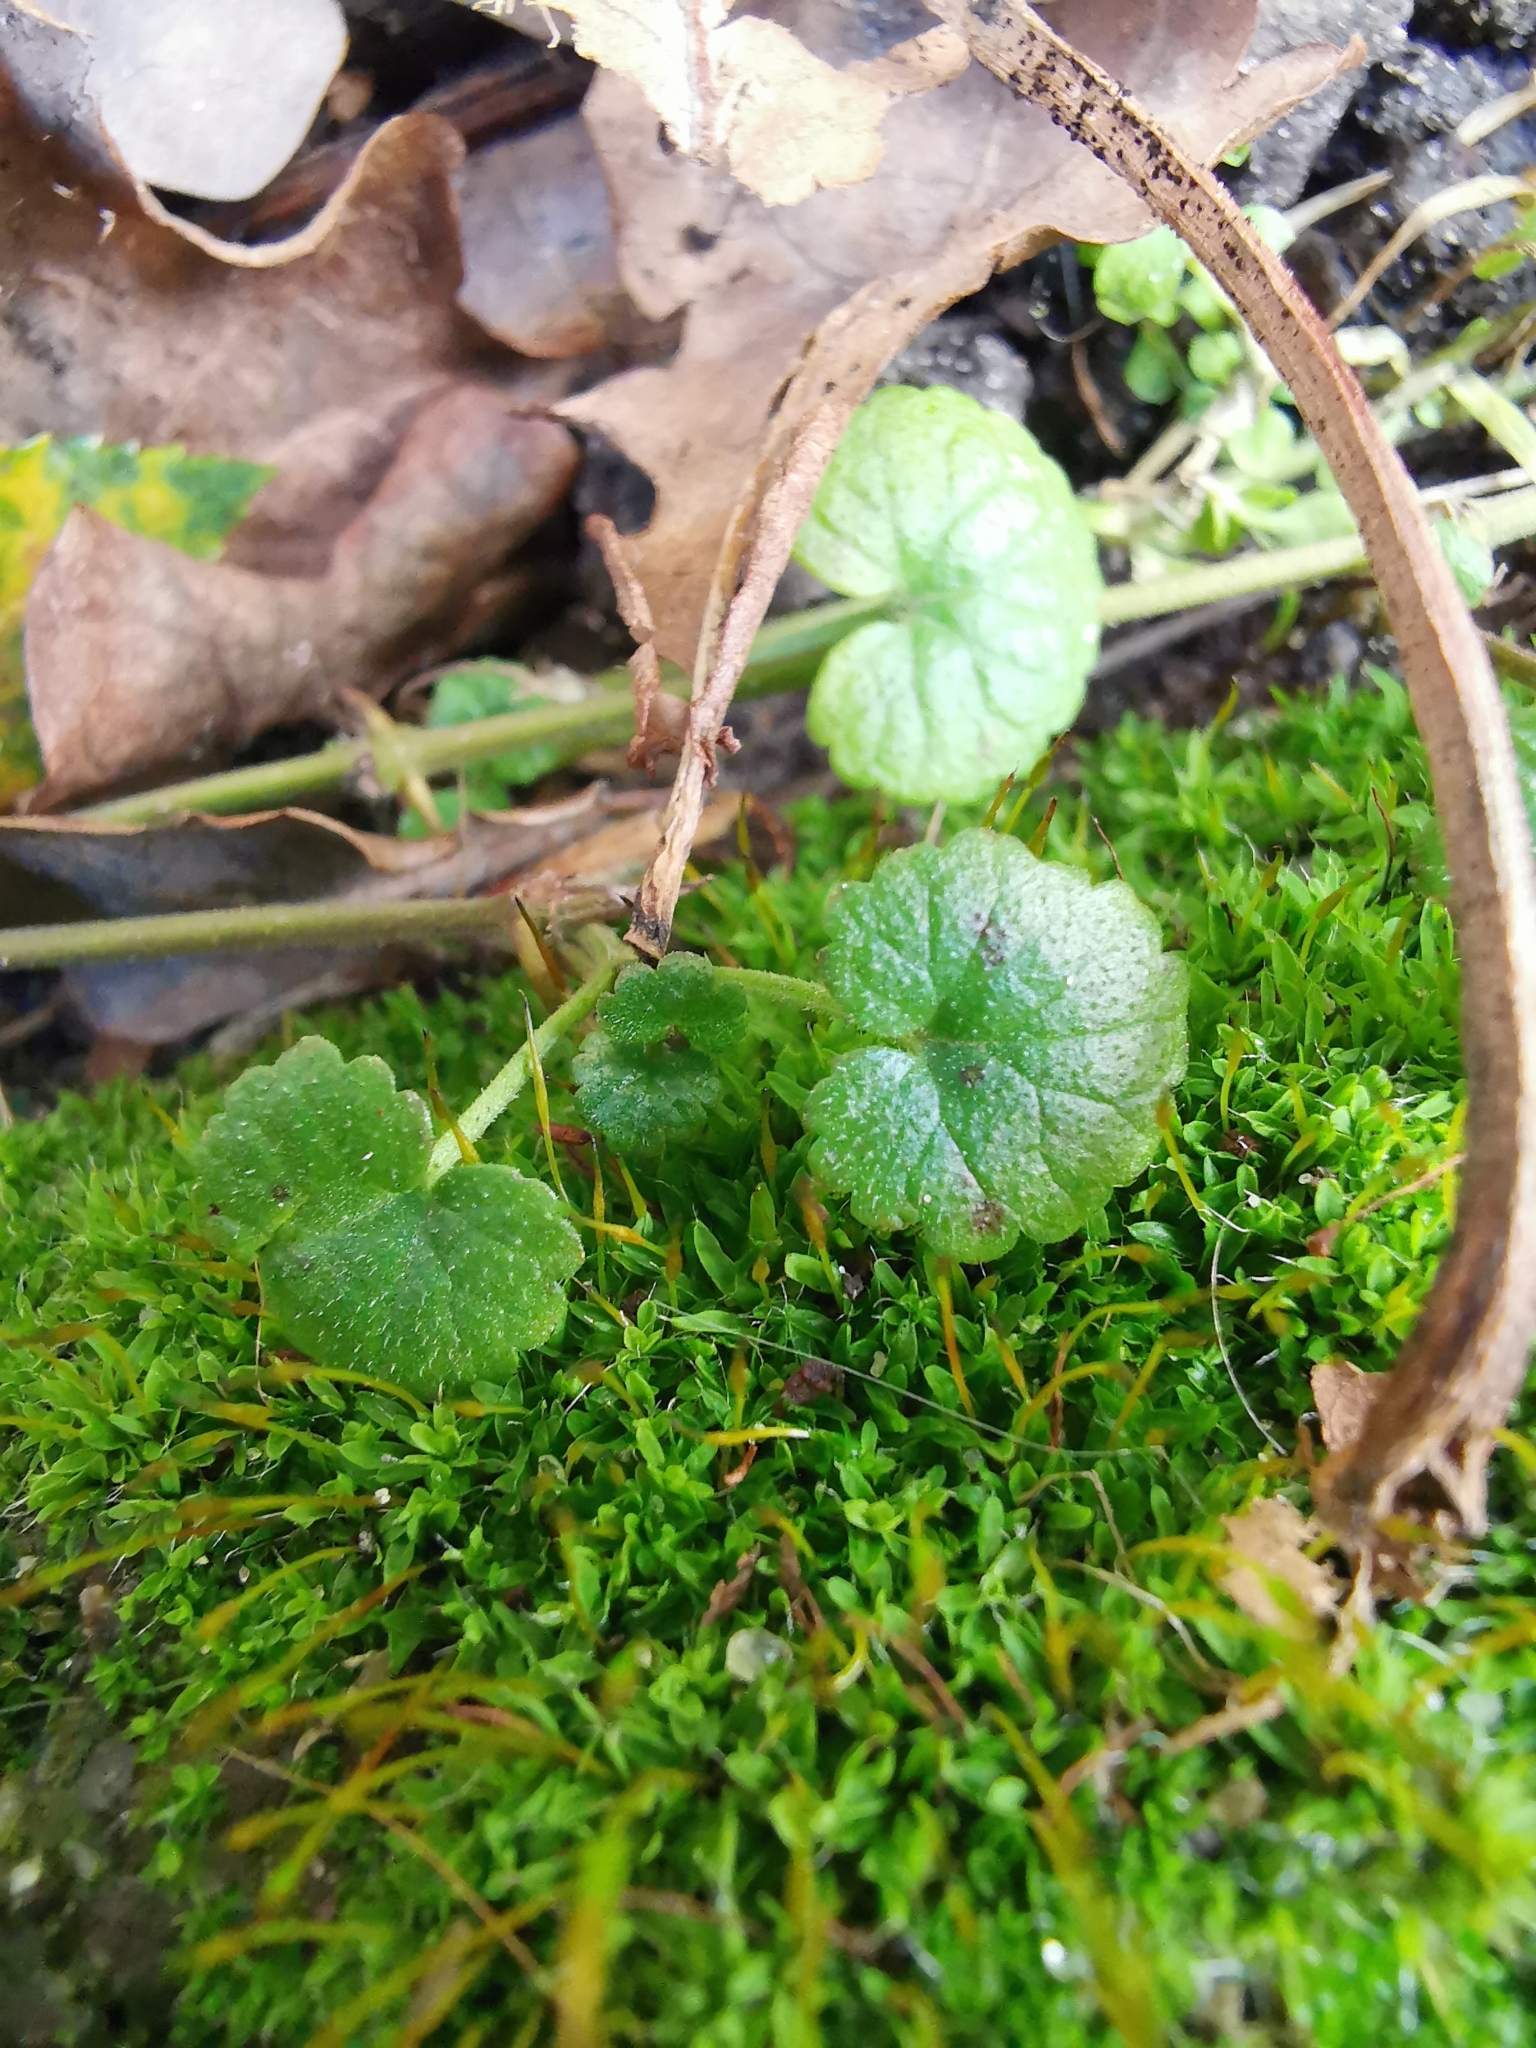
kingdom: Plantae
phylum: Tracheophyta
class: Magnoliopsida
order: Lamiales
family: Lamiaceae
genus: Glechoma
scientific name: Glechoma hederacea
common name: Ground ivy
